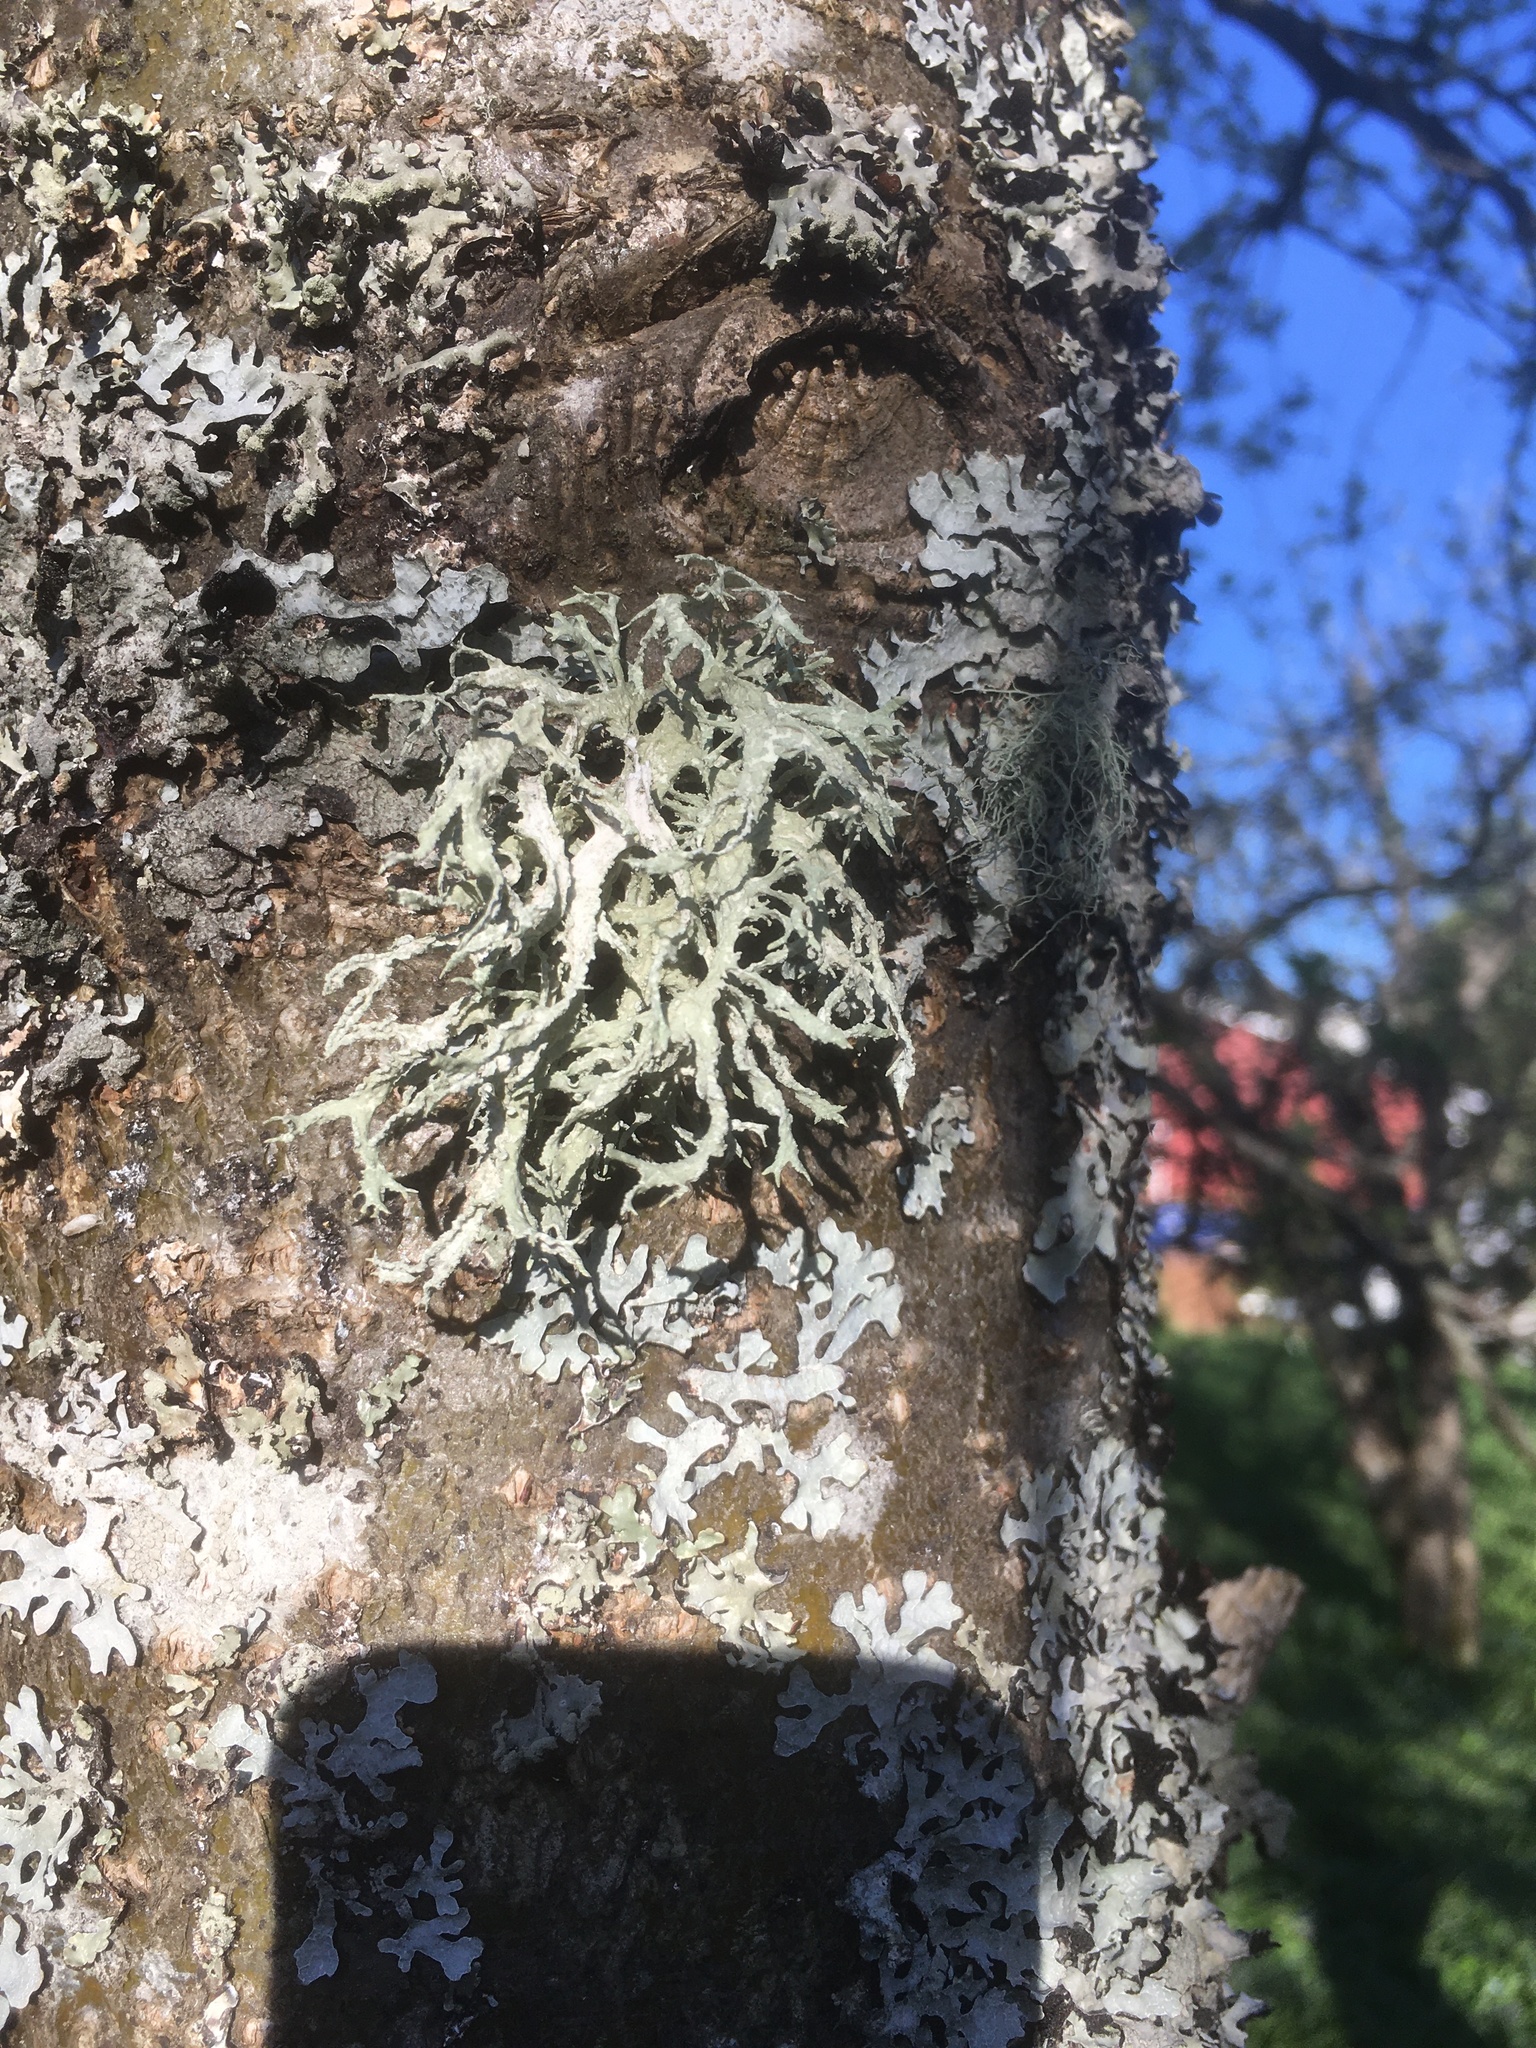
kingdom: Fungi
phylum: Ascomycota
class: Lecanoromycetes
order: Lecanorales
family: Parmeliaceae
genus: Evernia
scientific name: Evernia prunastri
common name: Oak moss
